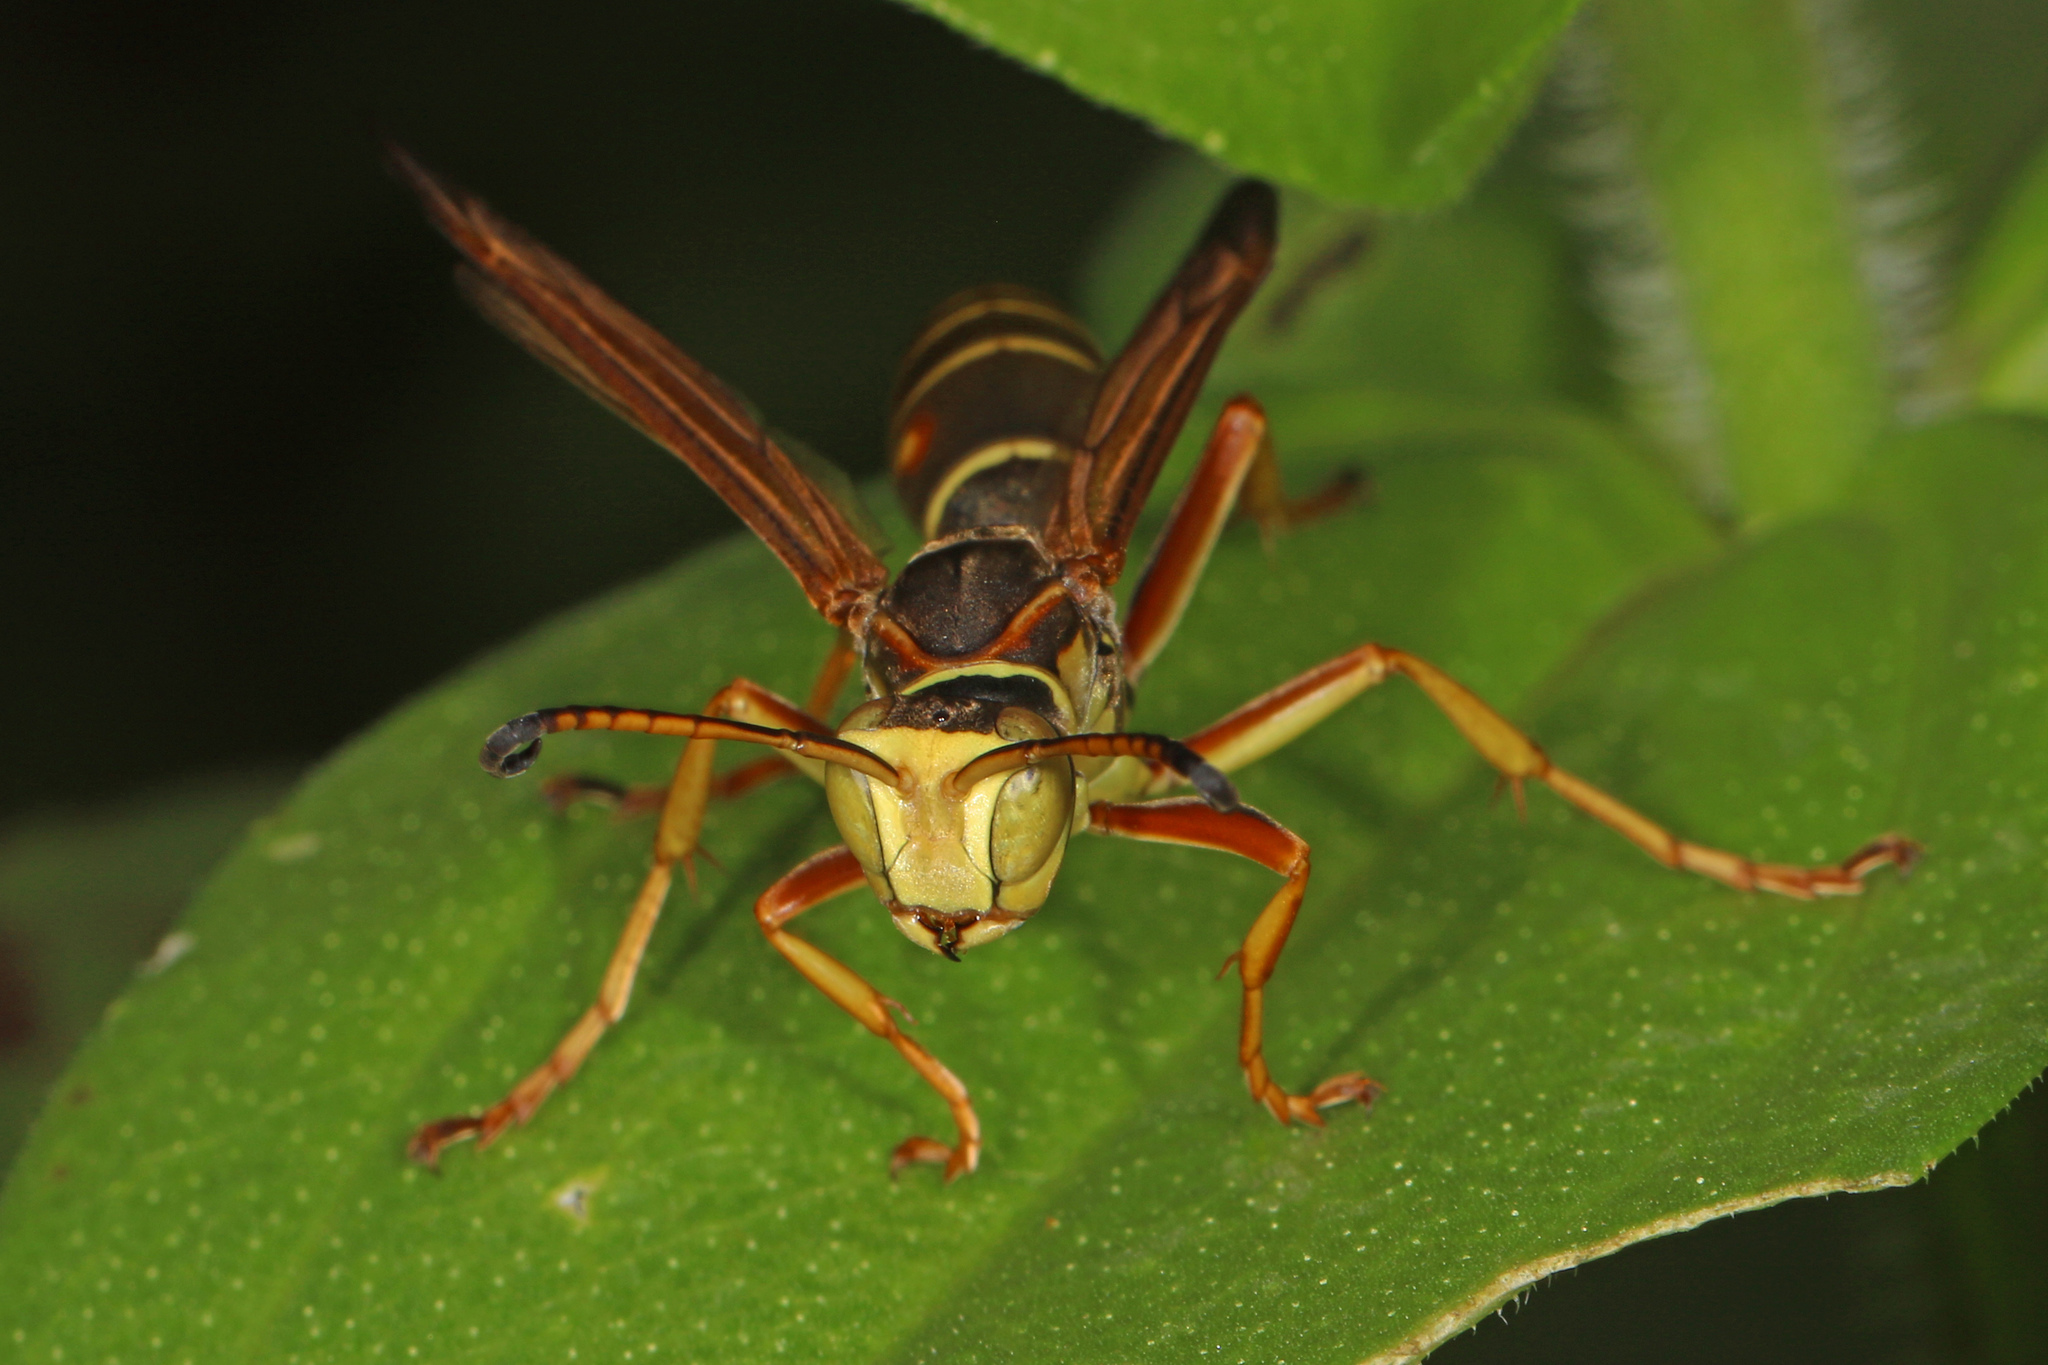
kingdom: Animalia
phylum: Arthropoda
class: Insecta
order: Hymenoptera
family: Eumenidae
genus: Polistes
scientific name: Polistes fuscatus
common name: Dark paper wasp
